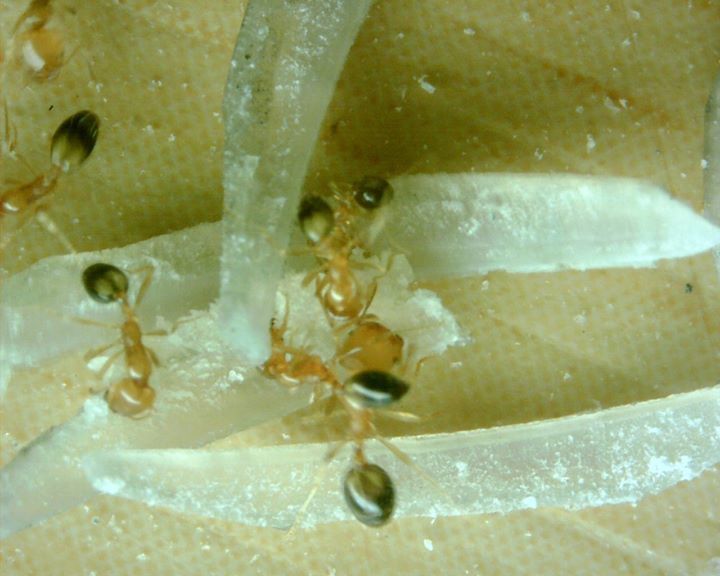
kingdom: Animalia
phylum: Arthropoda
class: Insecta
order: Hymenoptera
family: Formicidae
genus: Monomorium
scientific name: Monomorium destructor
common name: Destructive trailing ant
